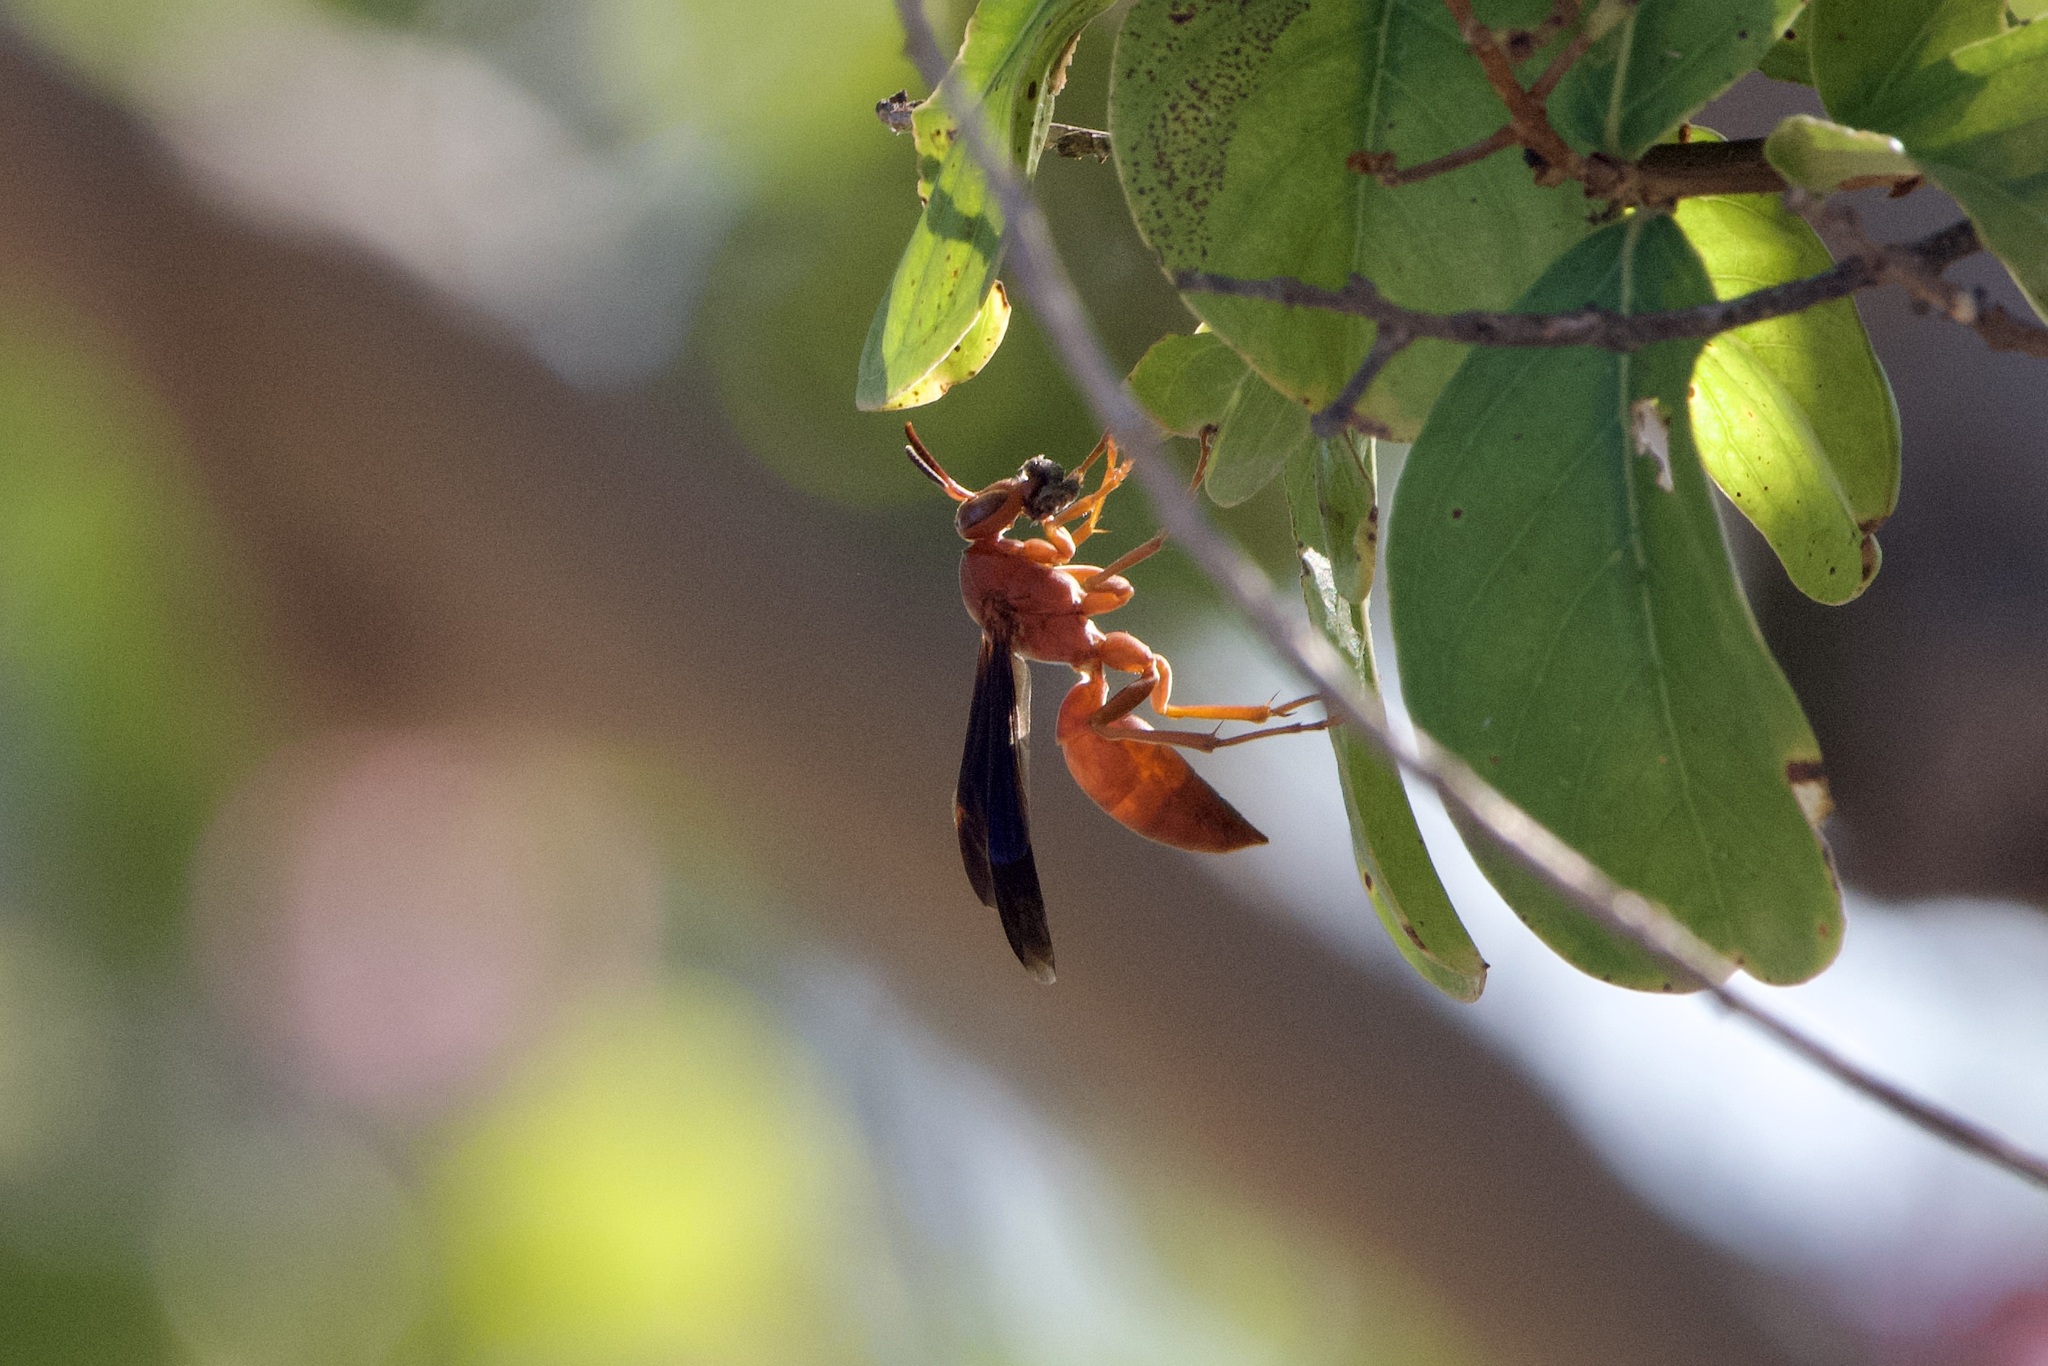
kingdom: Animalia
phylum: Arthropoda
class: Insecta
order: Hymenoptera
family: Vespidae
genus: Fuscopolistes
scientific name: Fuscopolistes
